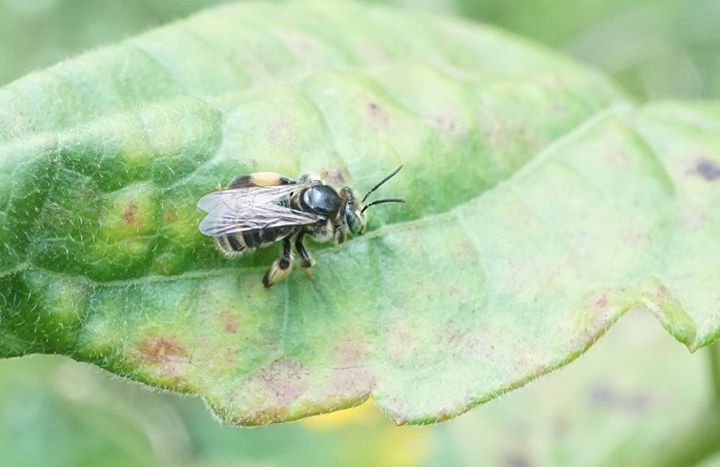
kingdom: Animalia
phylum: Arthropoda
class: Insecta
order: Hymenoptera
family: Apidae
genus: Exomalopsis
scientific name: Exomalopsis
